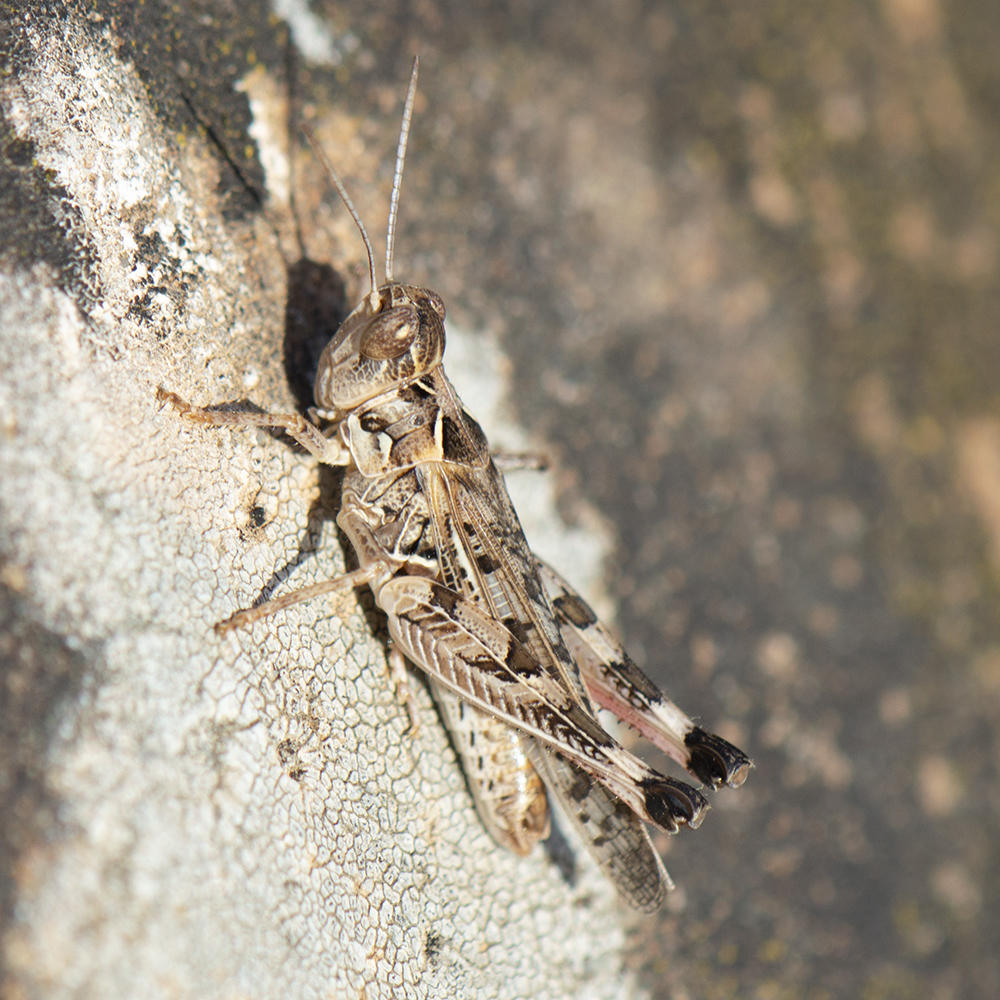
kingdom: Animalia
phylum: Arthropoda
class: Insecta
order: Orthoptera
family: Acrididae
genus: Dociostaurus
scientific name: Dociostaurus maroccanus
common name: Moroccan locust
